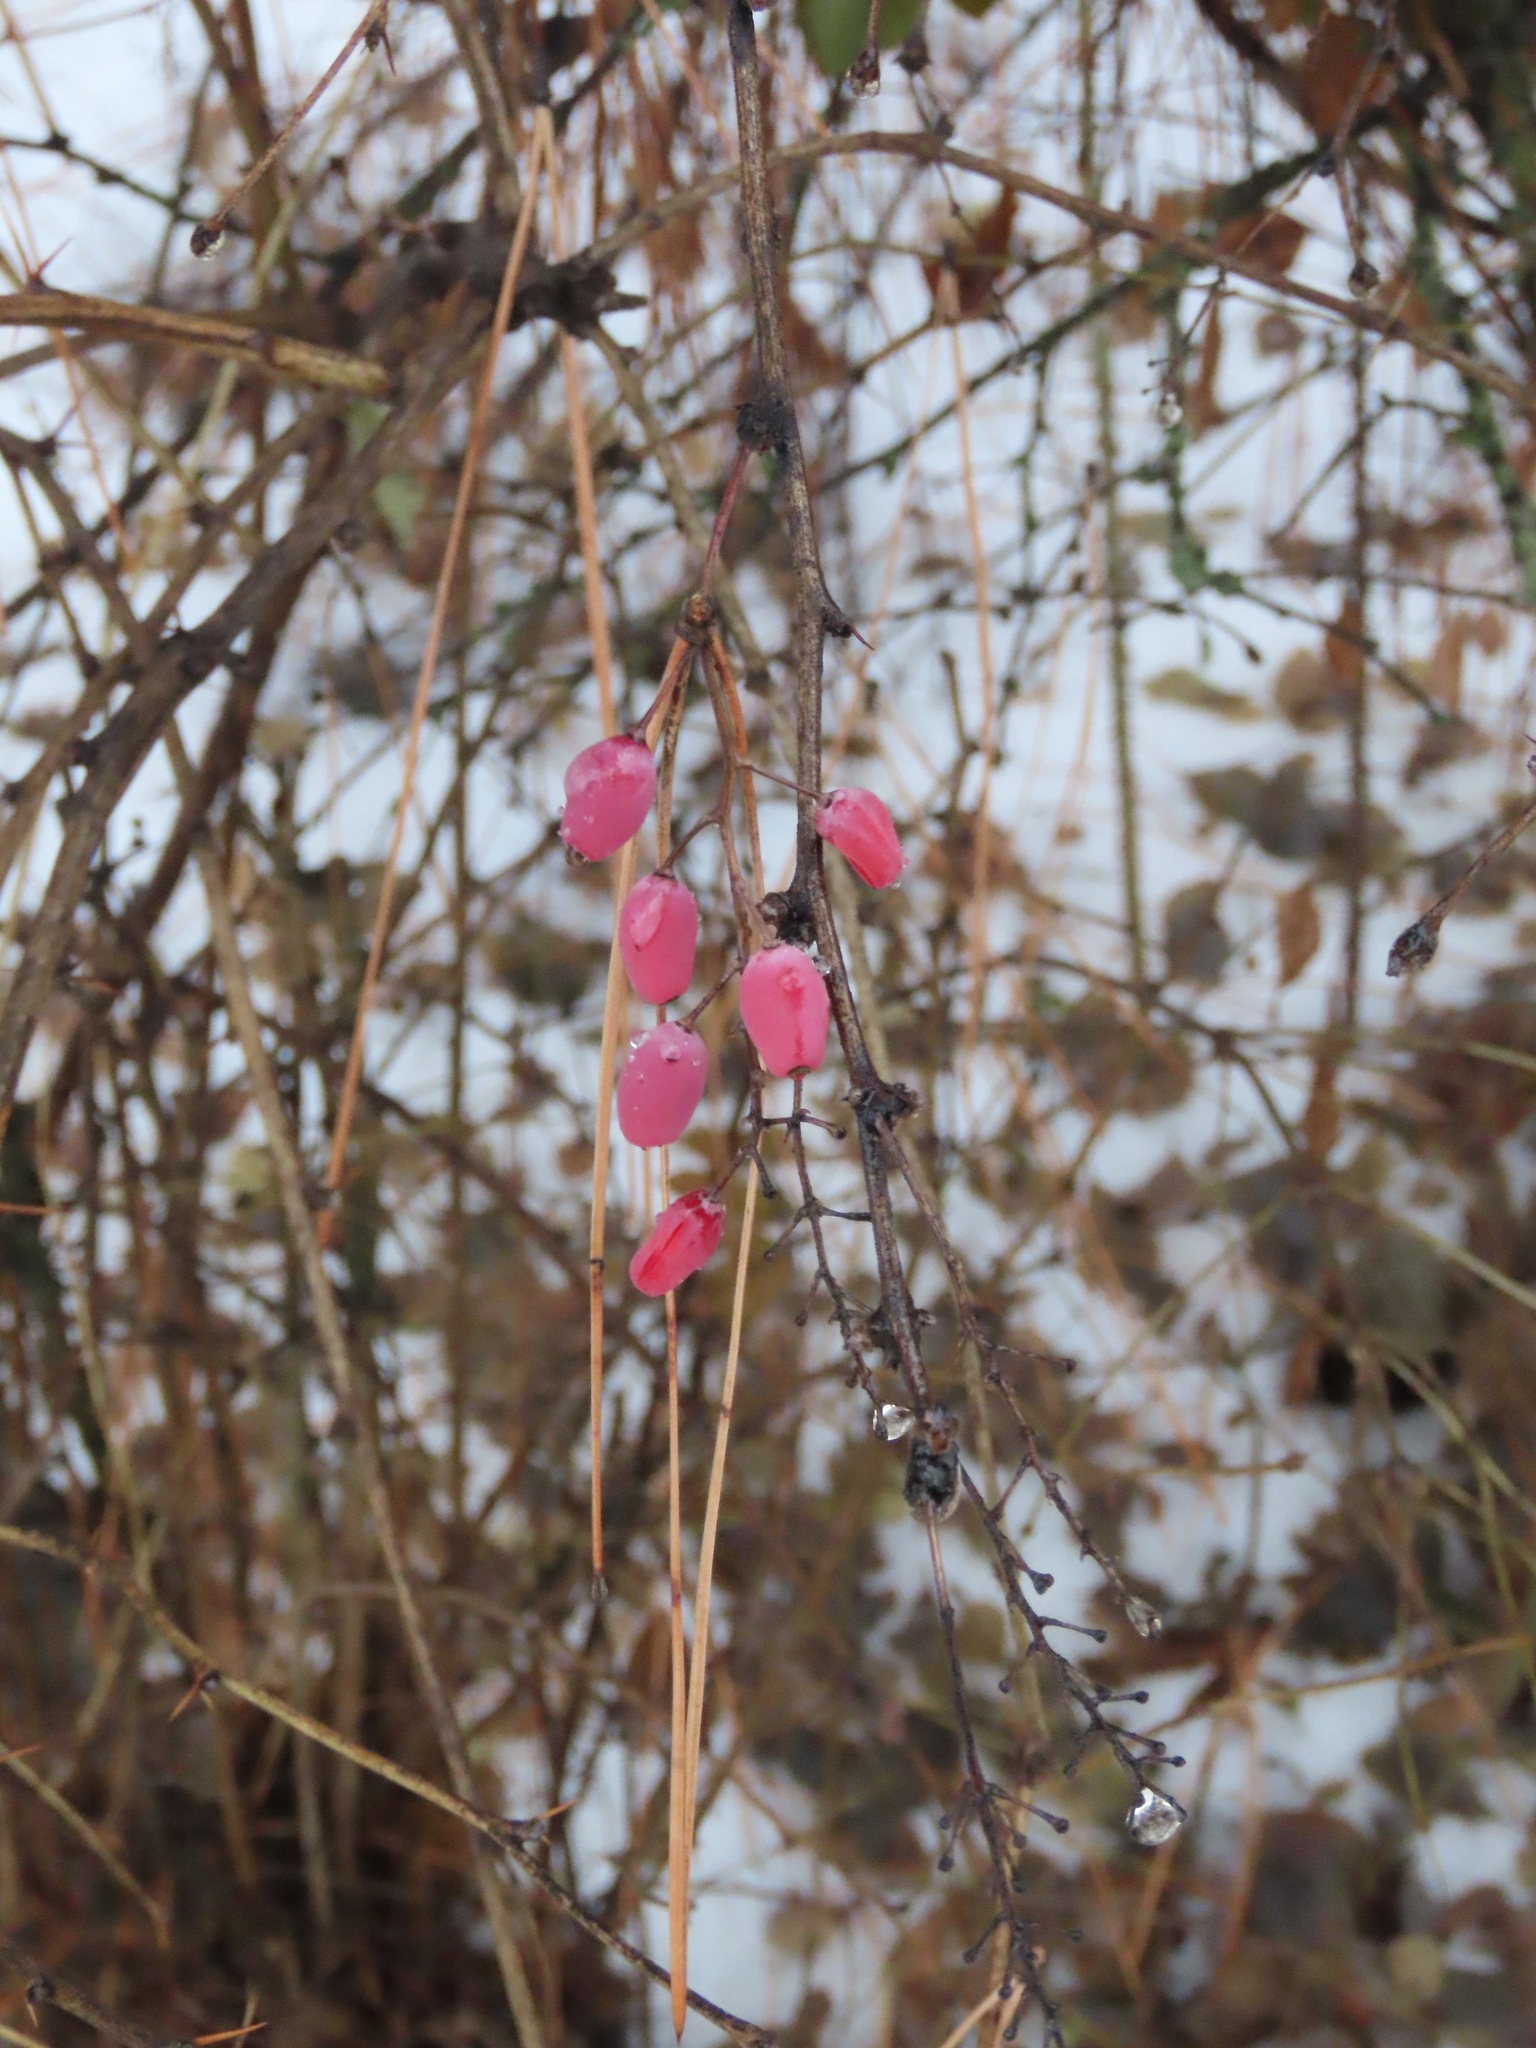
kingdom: Plantae
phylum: Tracheophyta
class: Magnoliopsida
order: Ranunculales
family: Berberidaceae
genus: Berberis
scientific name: Berberis vulgaris
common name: Barberry
